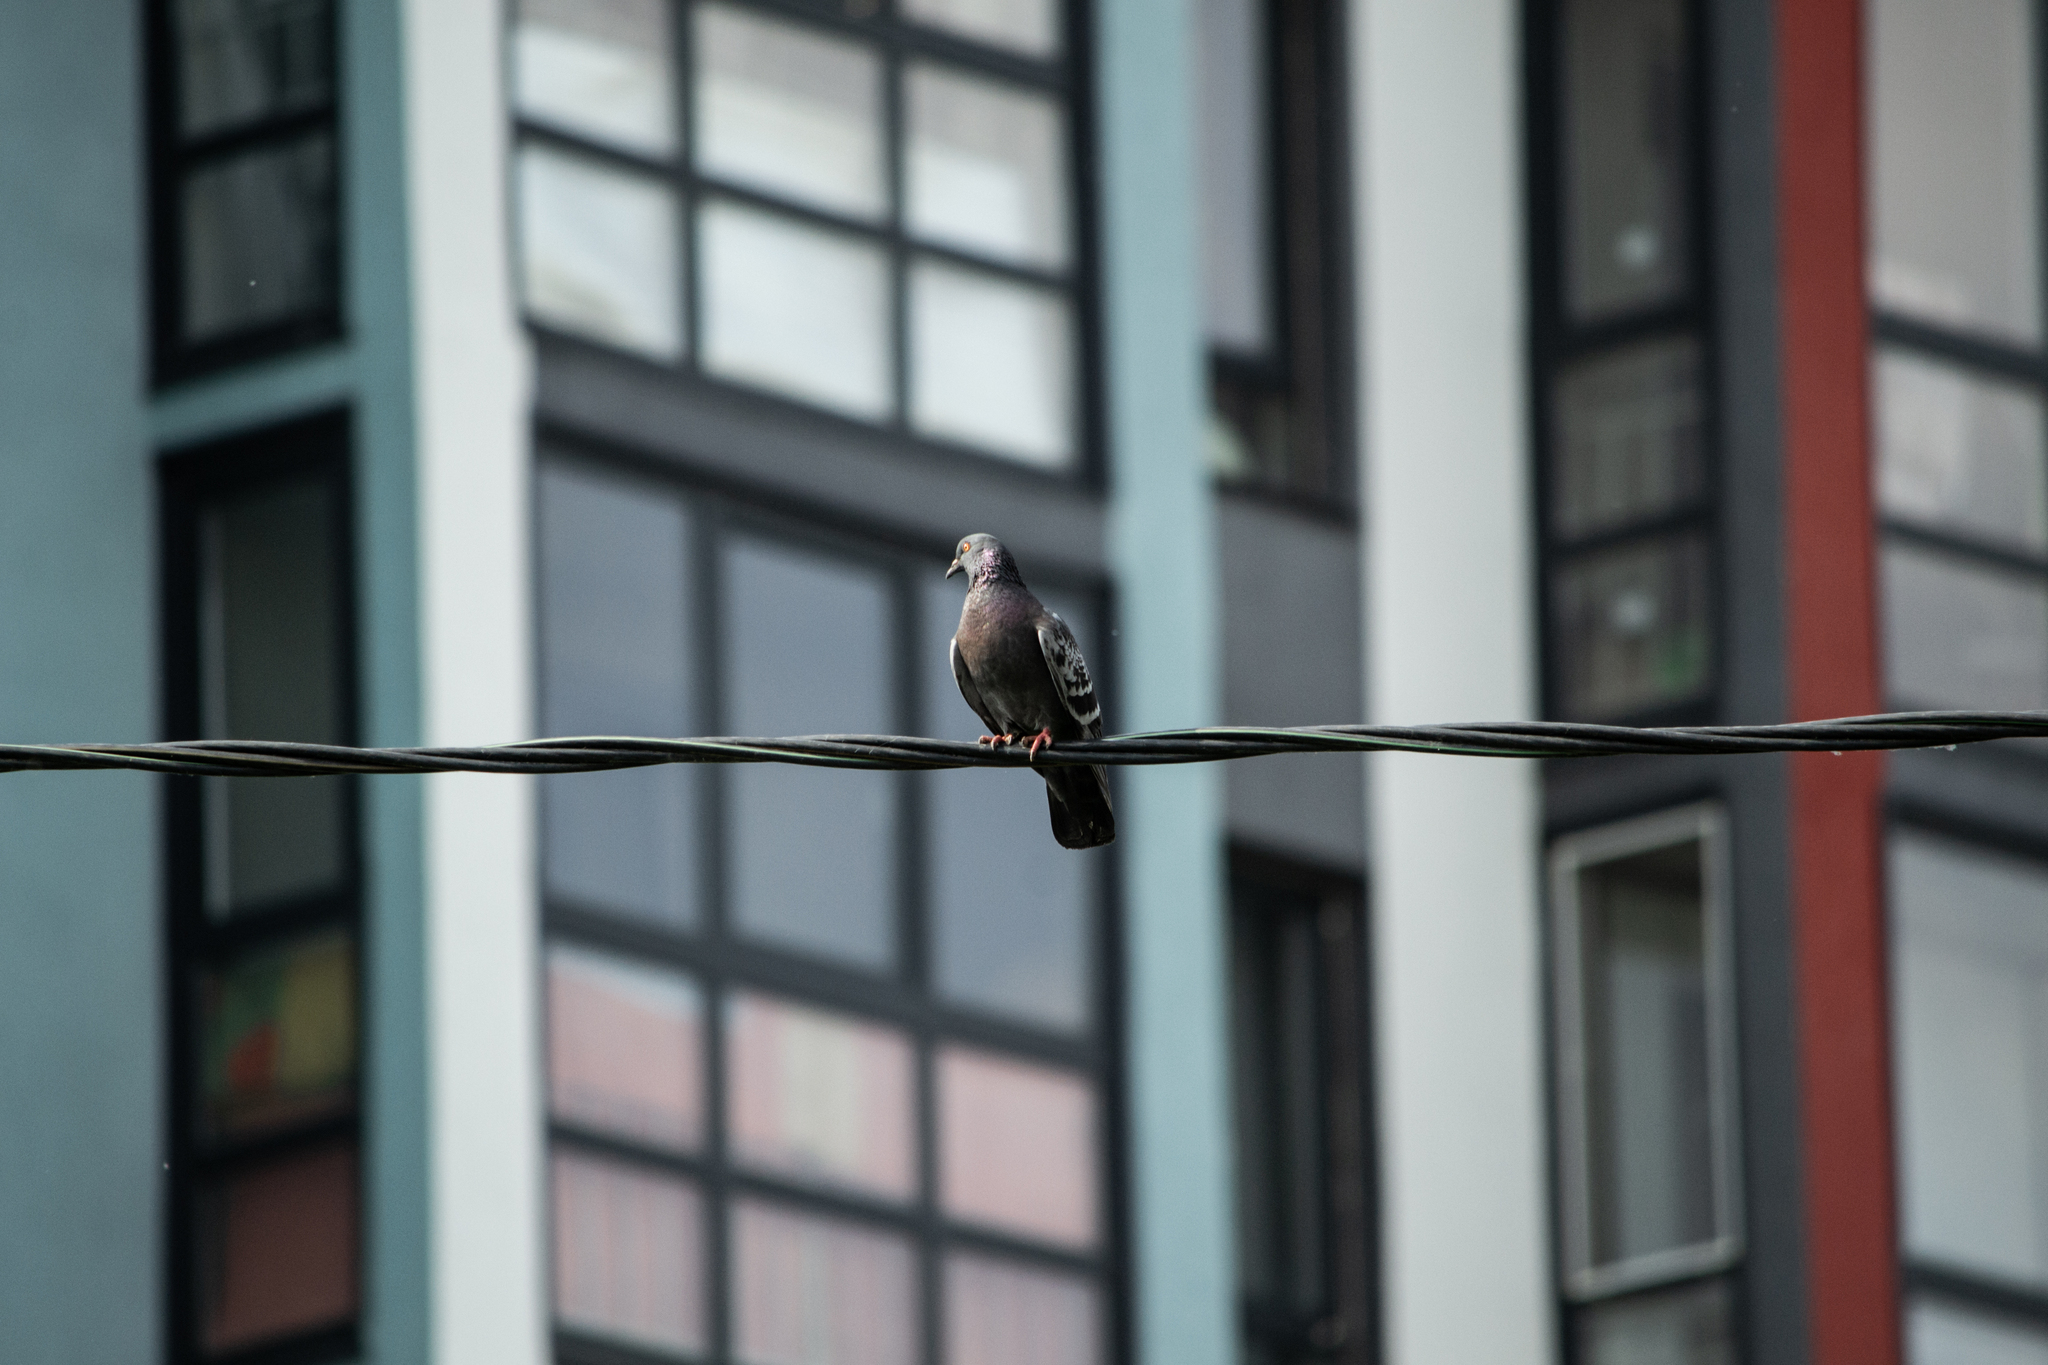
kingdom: Animalia
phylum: Chordata
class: Aves
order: Columbiformes
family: Columbidae
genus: Columba
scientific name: Columba livia
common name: Rock pigeon
